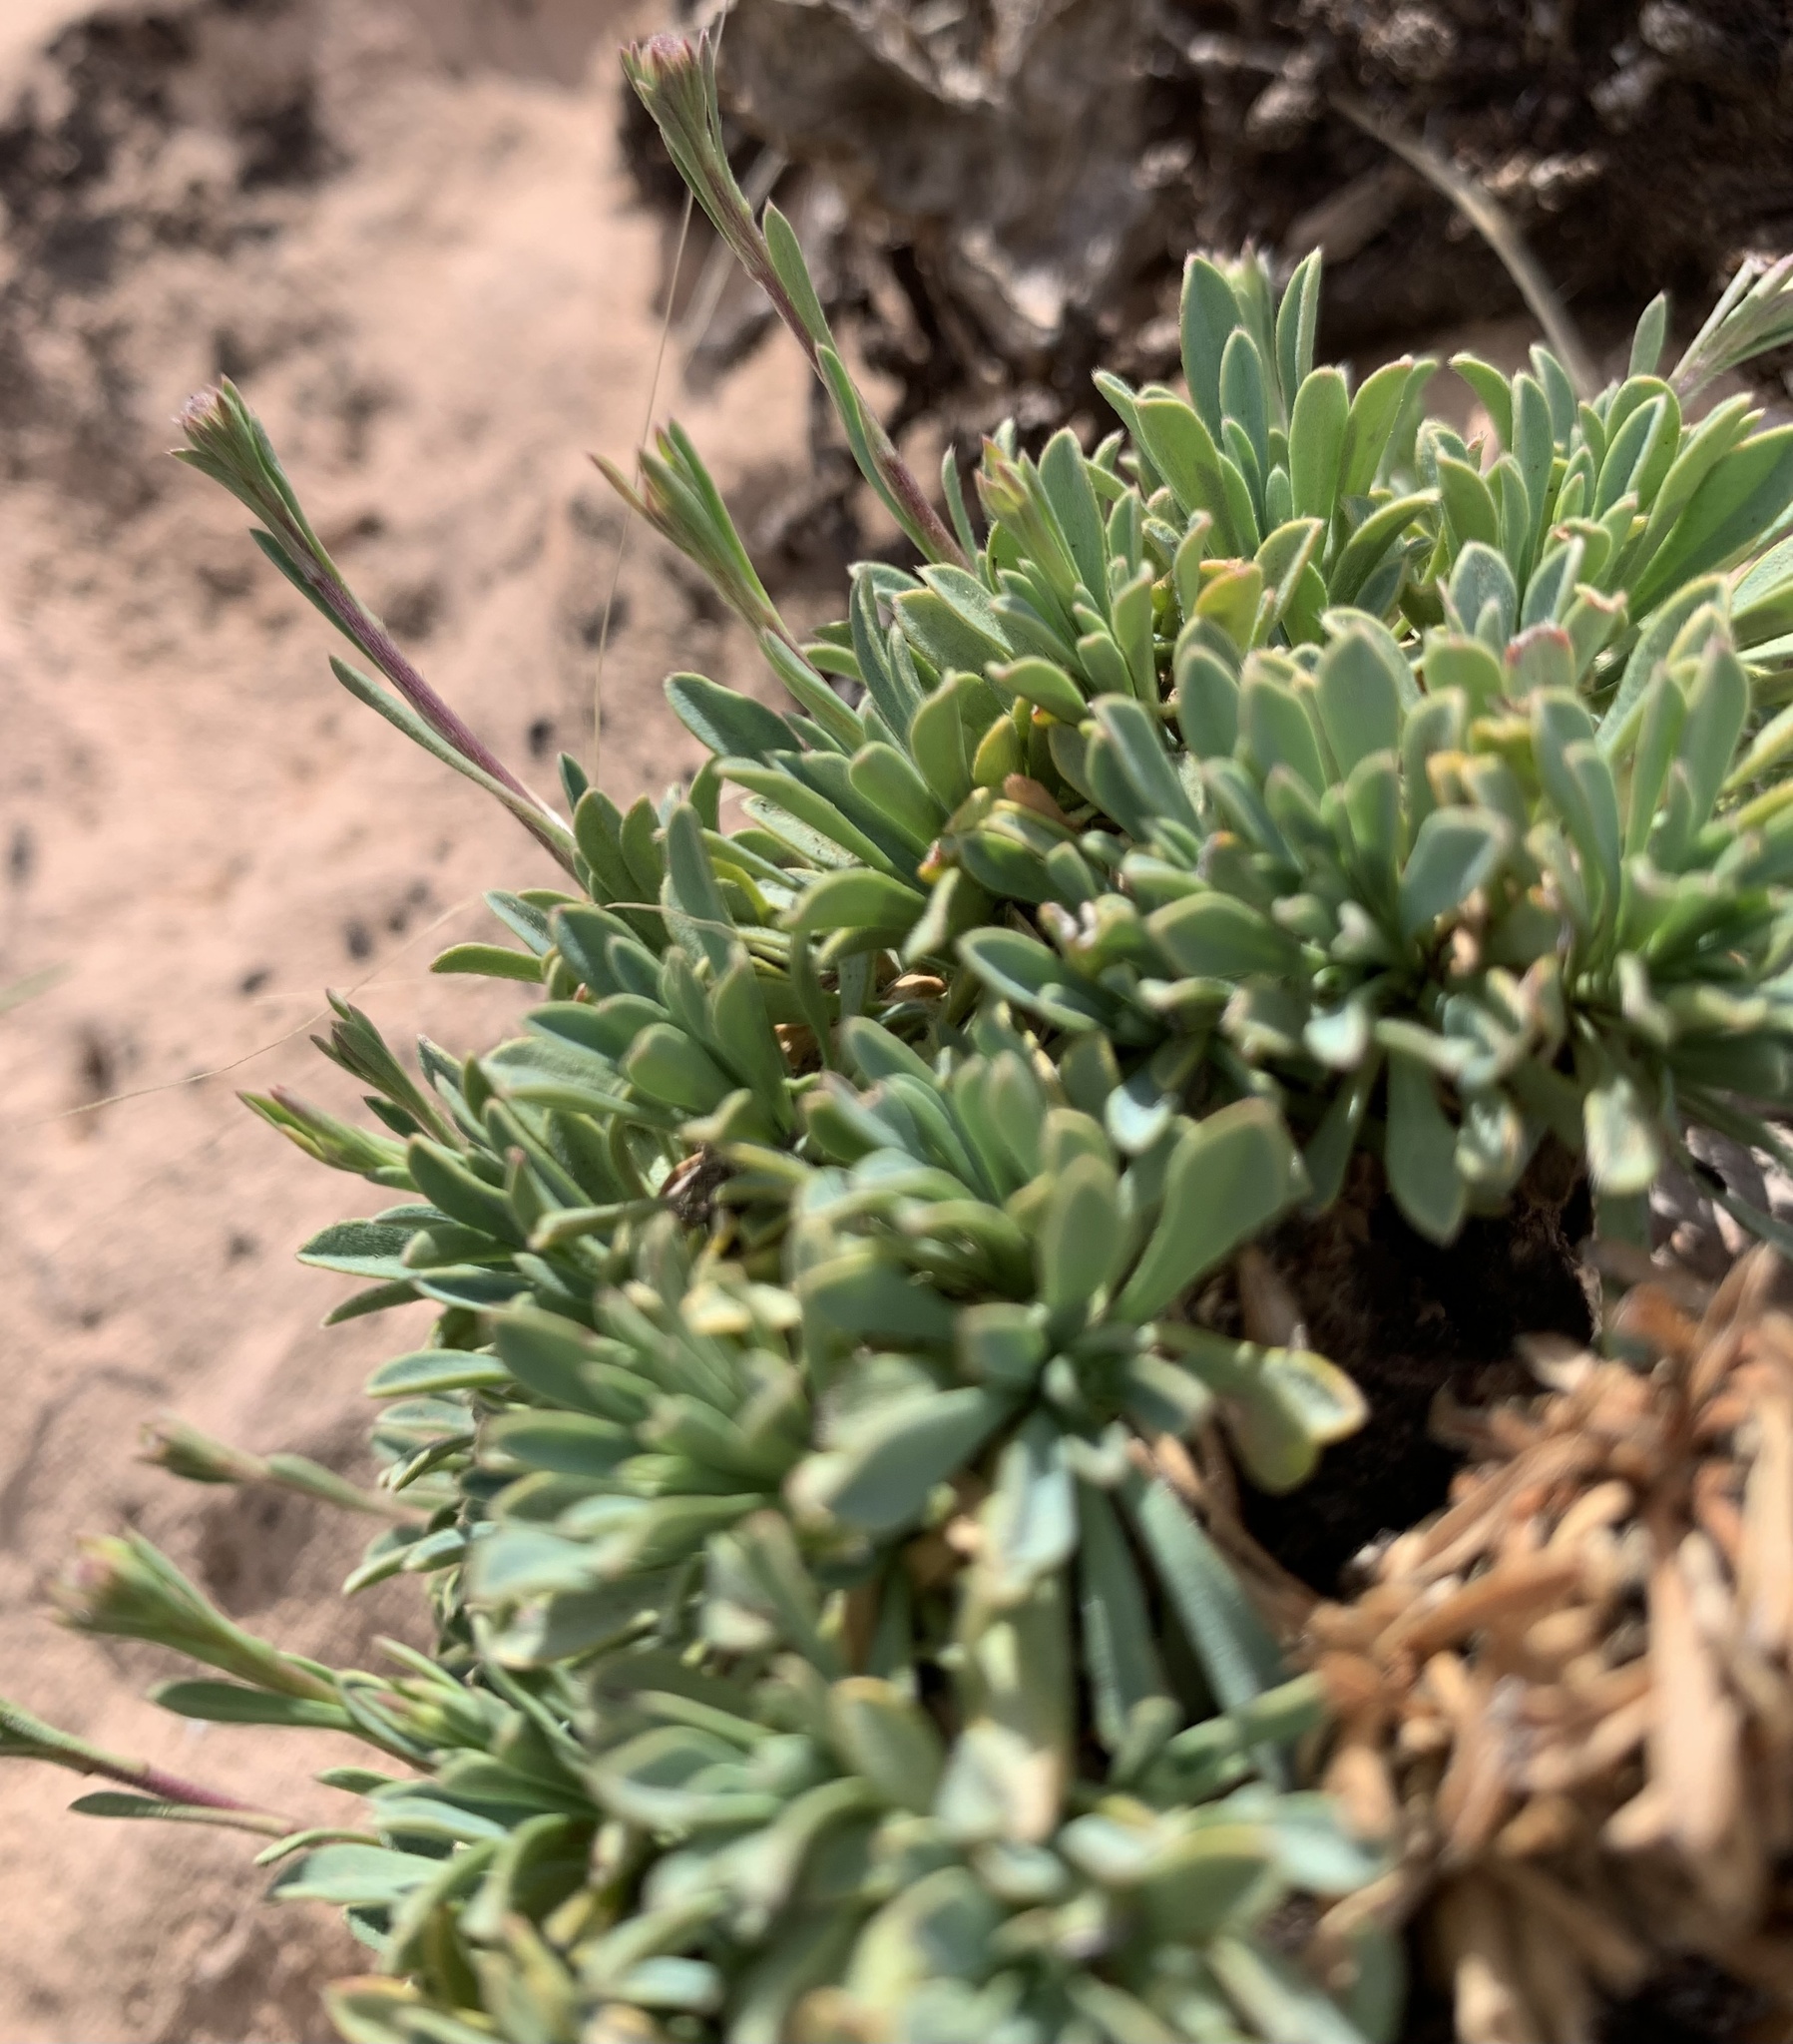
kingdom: Plantae
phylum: Tracheophyta
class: Magnoliopsida
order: Rosales
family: Rosaceae
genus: Petrophytum
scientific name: Petrophytum caespitosum
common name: Mat rockspirea
